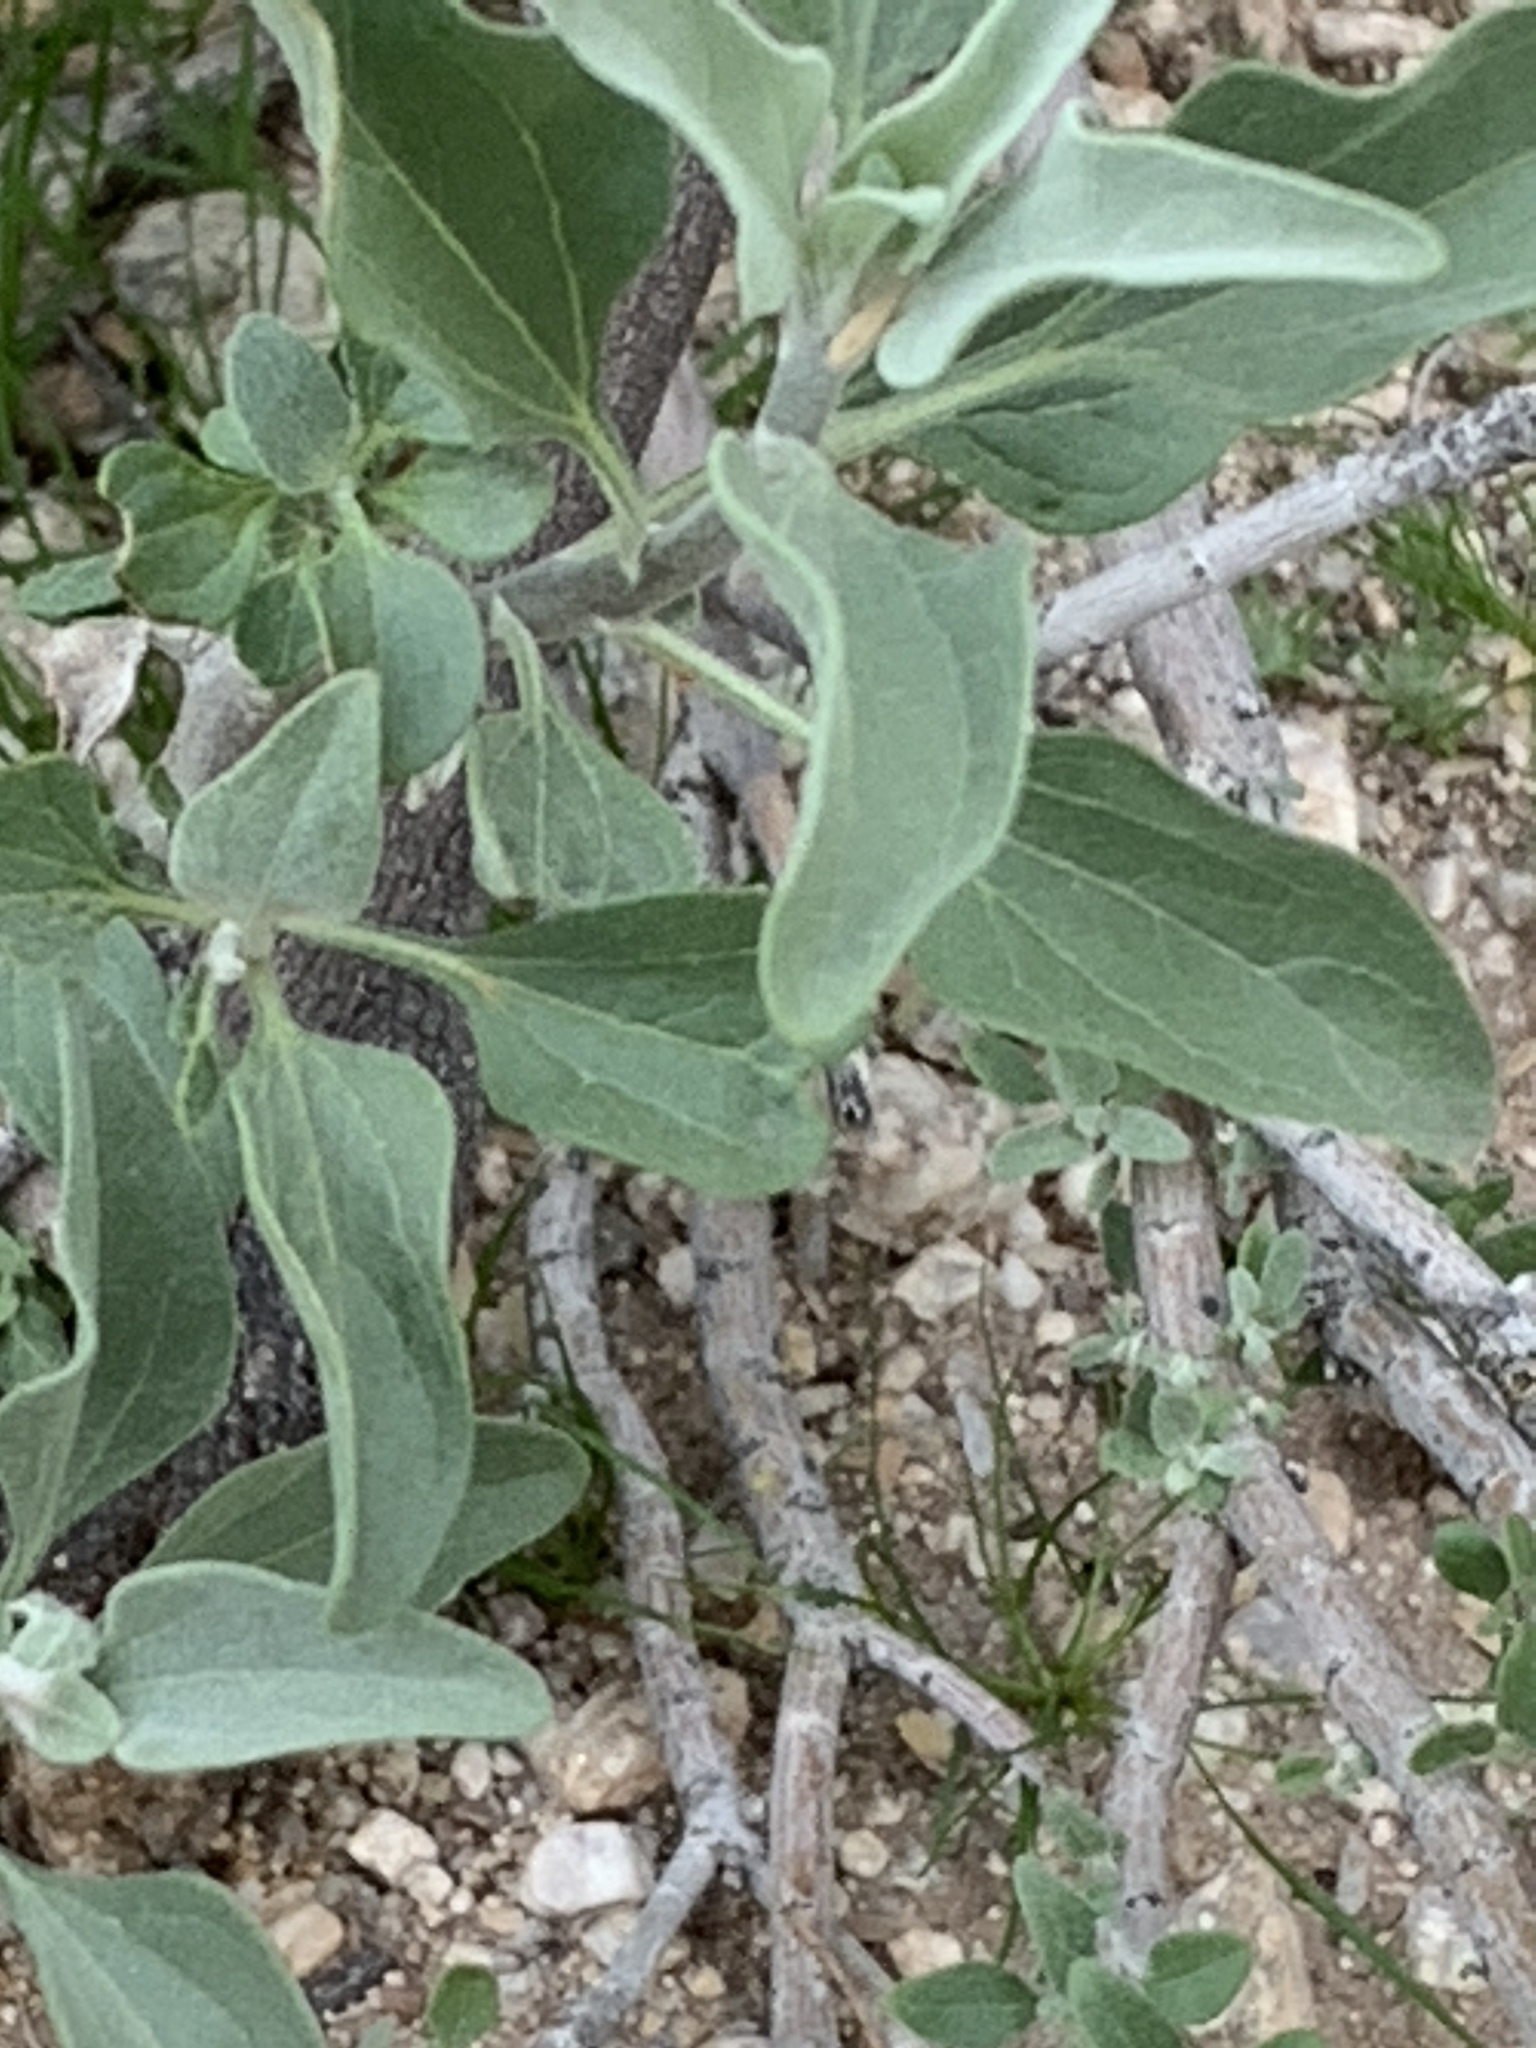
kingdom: Plantae
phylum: Tracheophyta
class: Magnoliopsida
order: Asterales
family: Asteraceae
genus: Encelia
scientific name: Encelia farinosa
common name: Brittlebush
